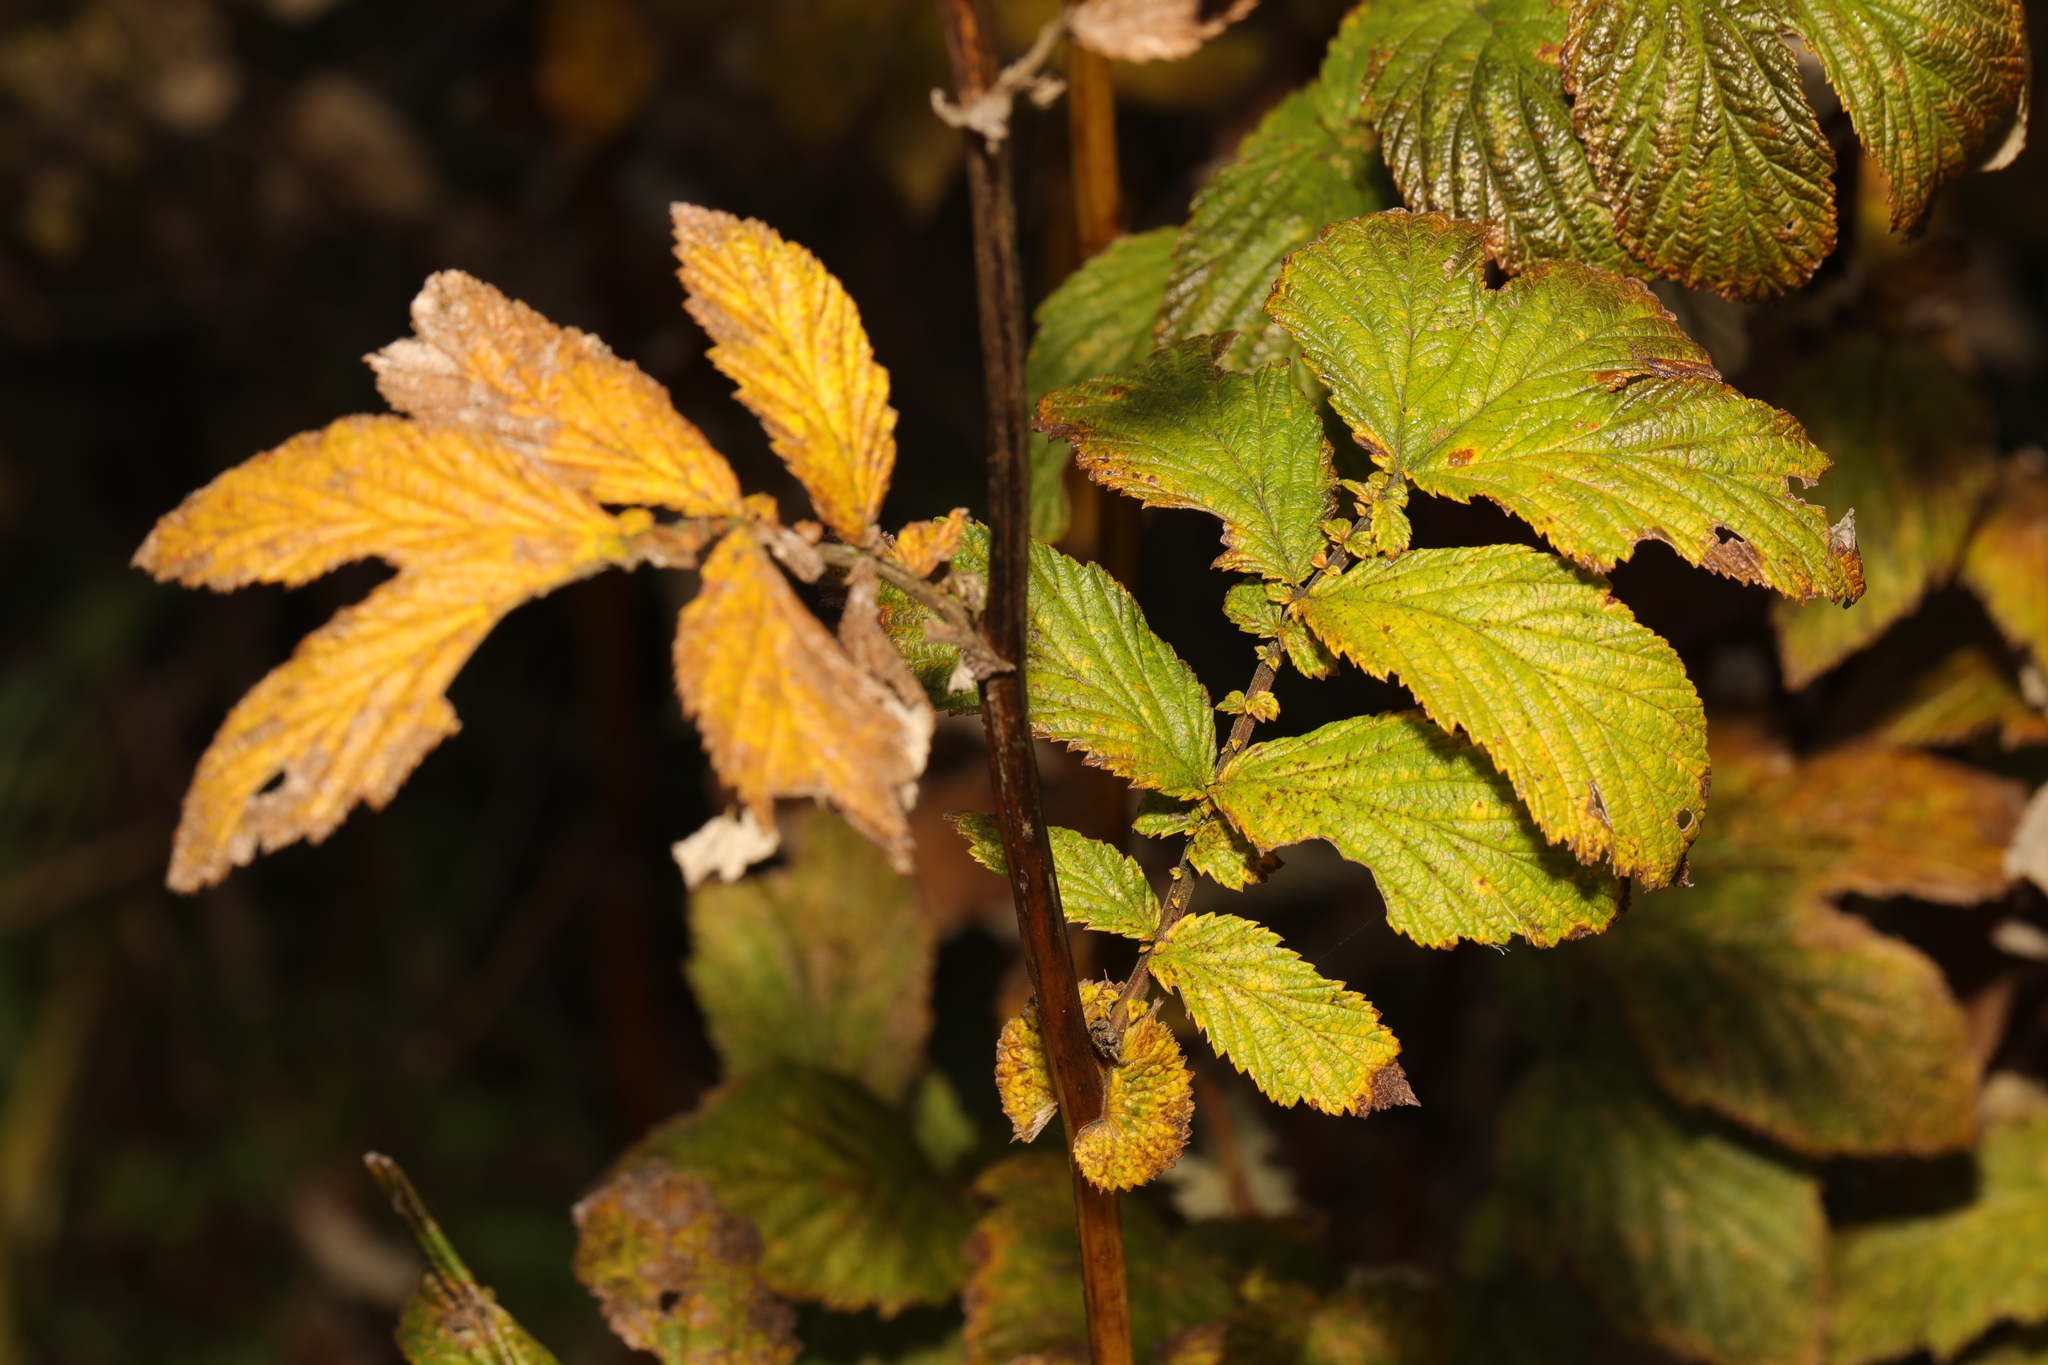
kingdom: Plantae
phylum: Tracheophyta
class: Magnoliopsida
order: Rosales
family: Rosaceae
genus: Filipendula
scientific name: Filipendula ulmaria
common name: Meadowsweet
